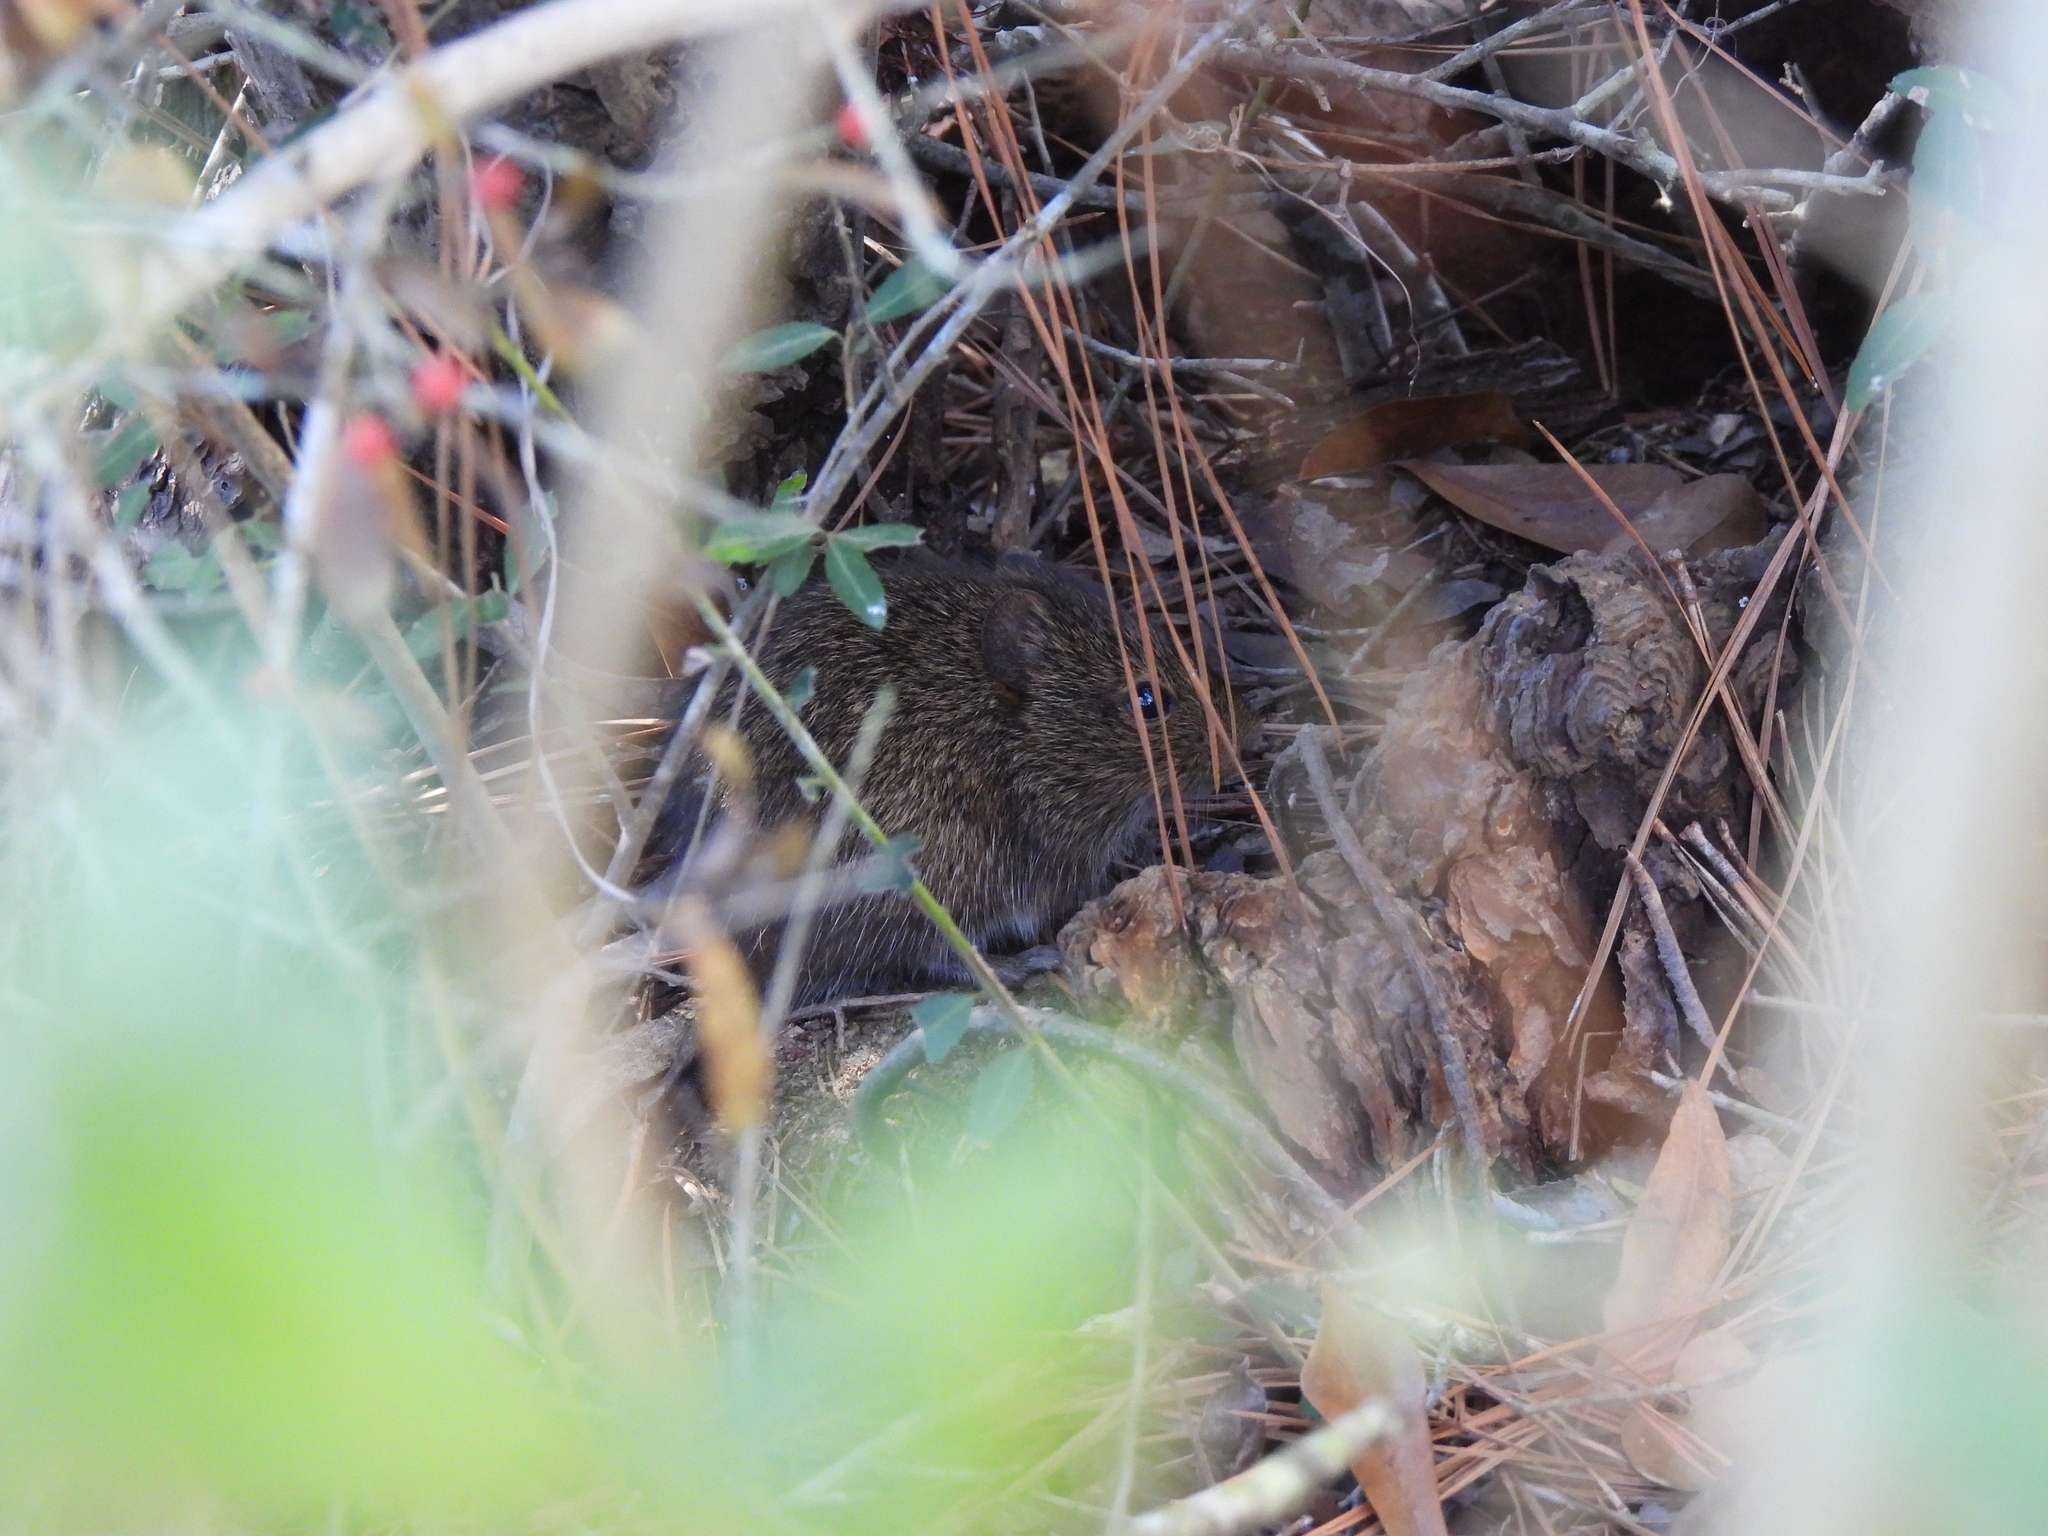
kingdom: Animalia
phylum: Chordata
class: Mammalia
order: Rodentia
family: Cricetidae
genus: Sigmodon
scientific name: Sigmodon hispidus
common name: Hispid cotton rat
